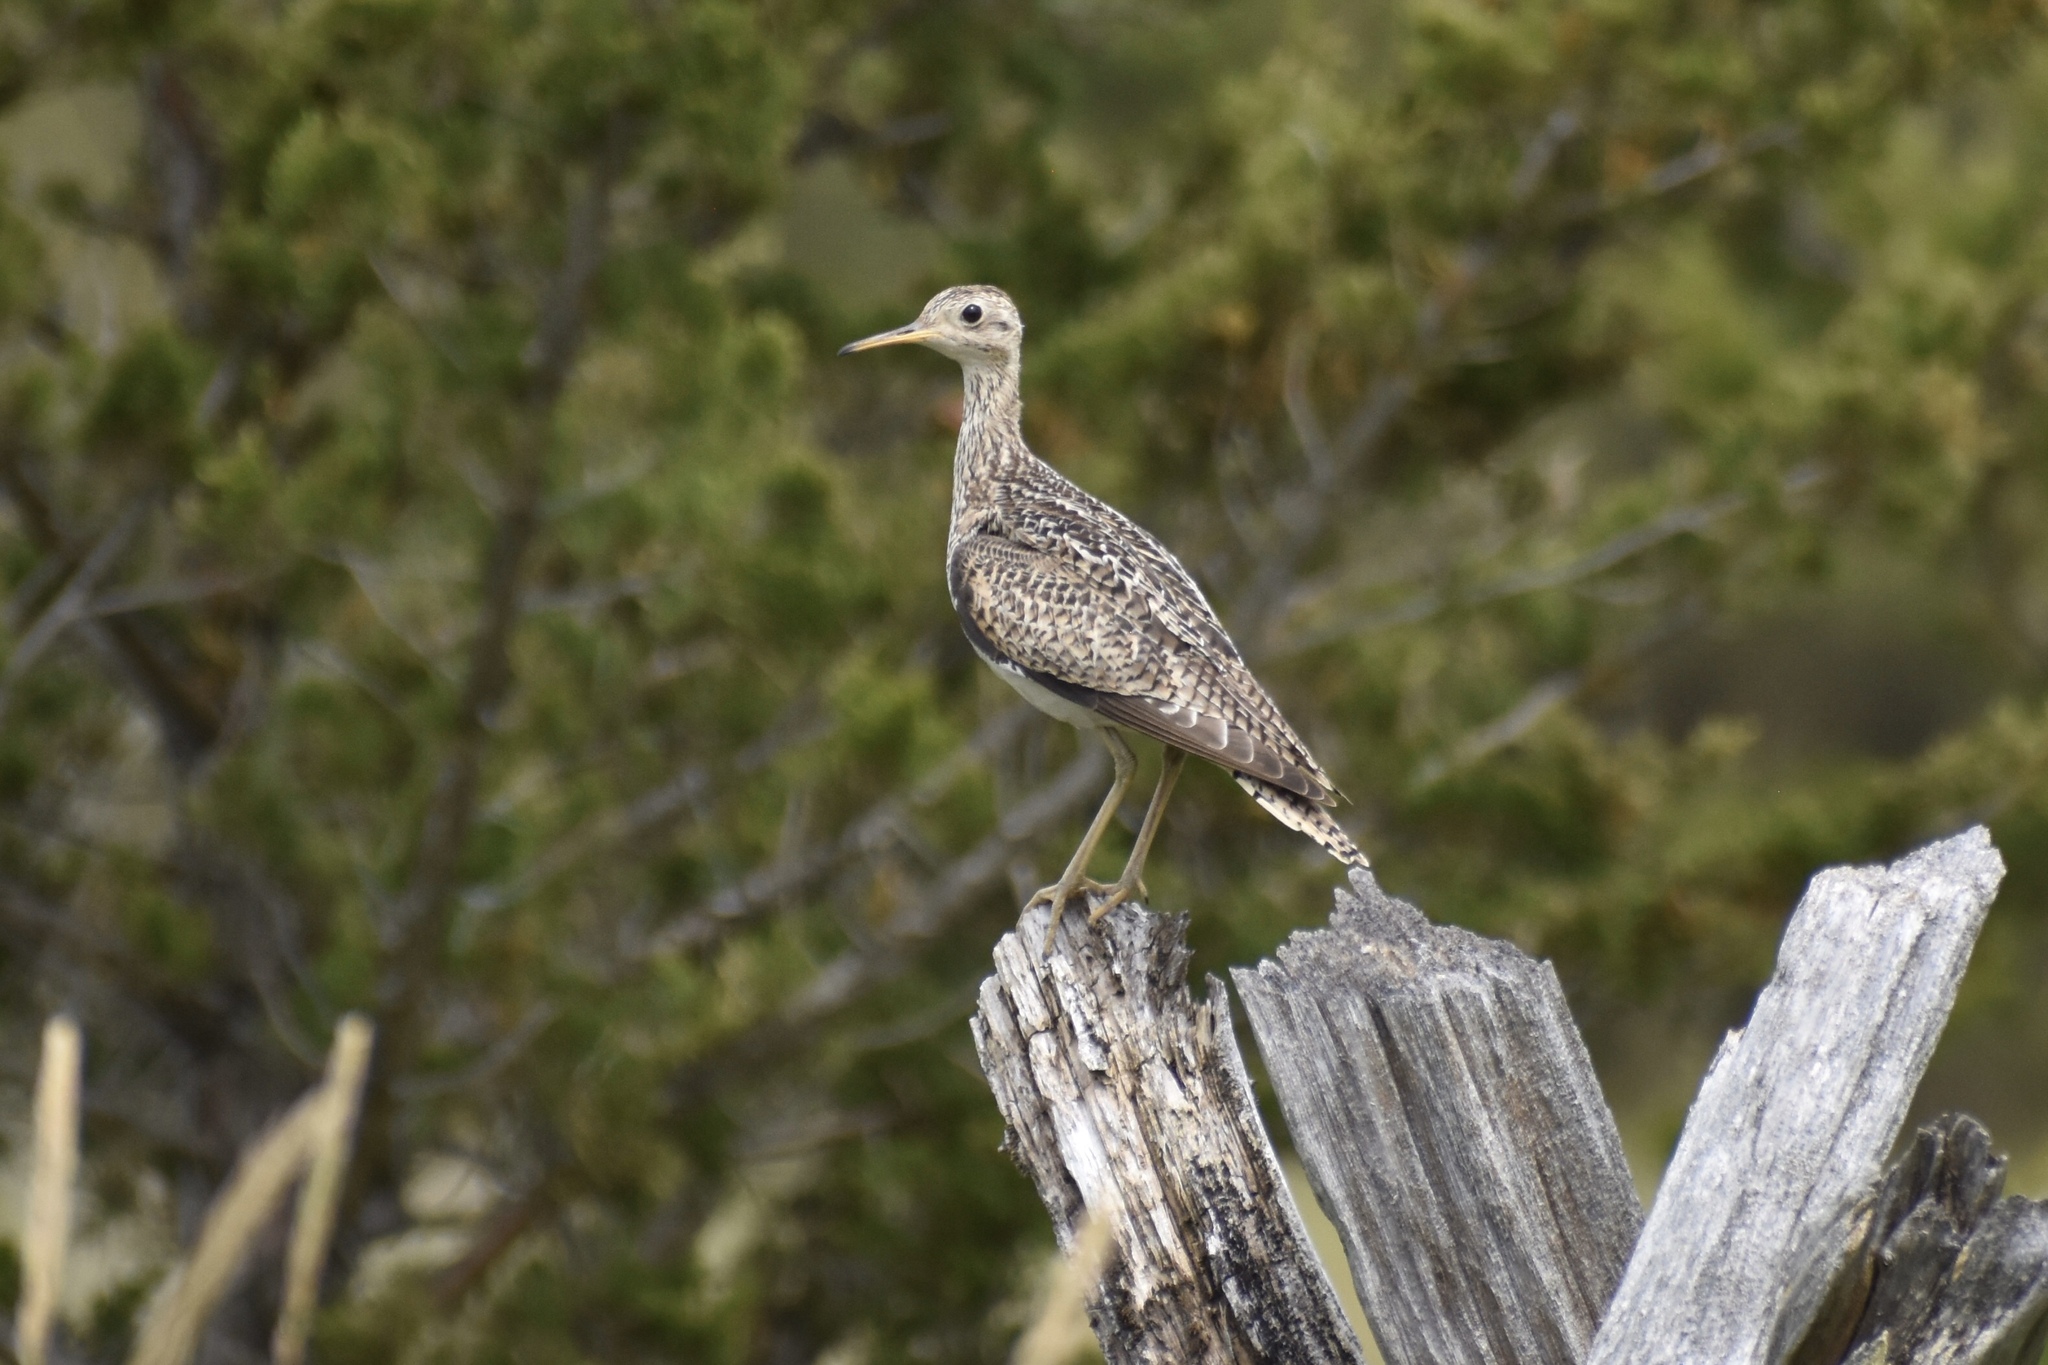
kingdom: Animalia
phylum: Chordata
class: Aves
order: Charadriiformes
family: Scolopacidae
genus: Bartramia
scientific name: Bartramia longicauda
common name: Upland sandpiper
